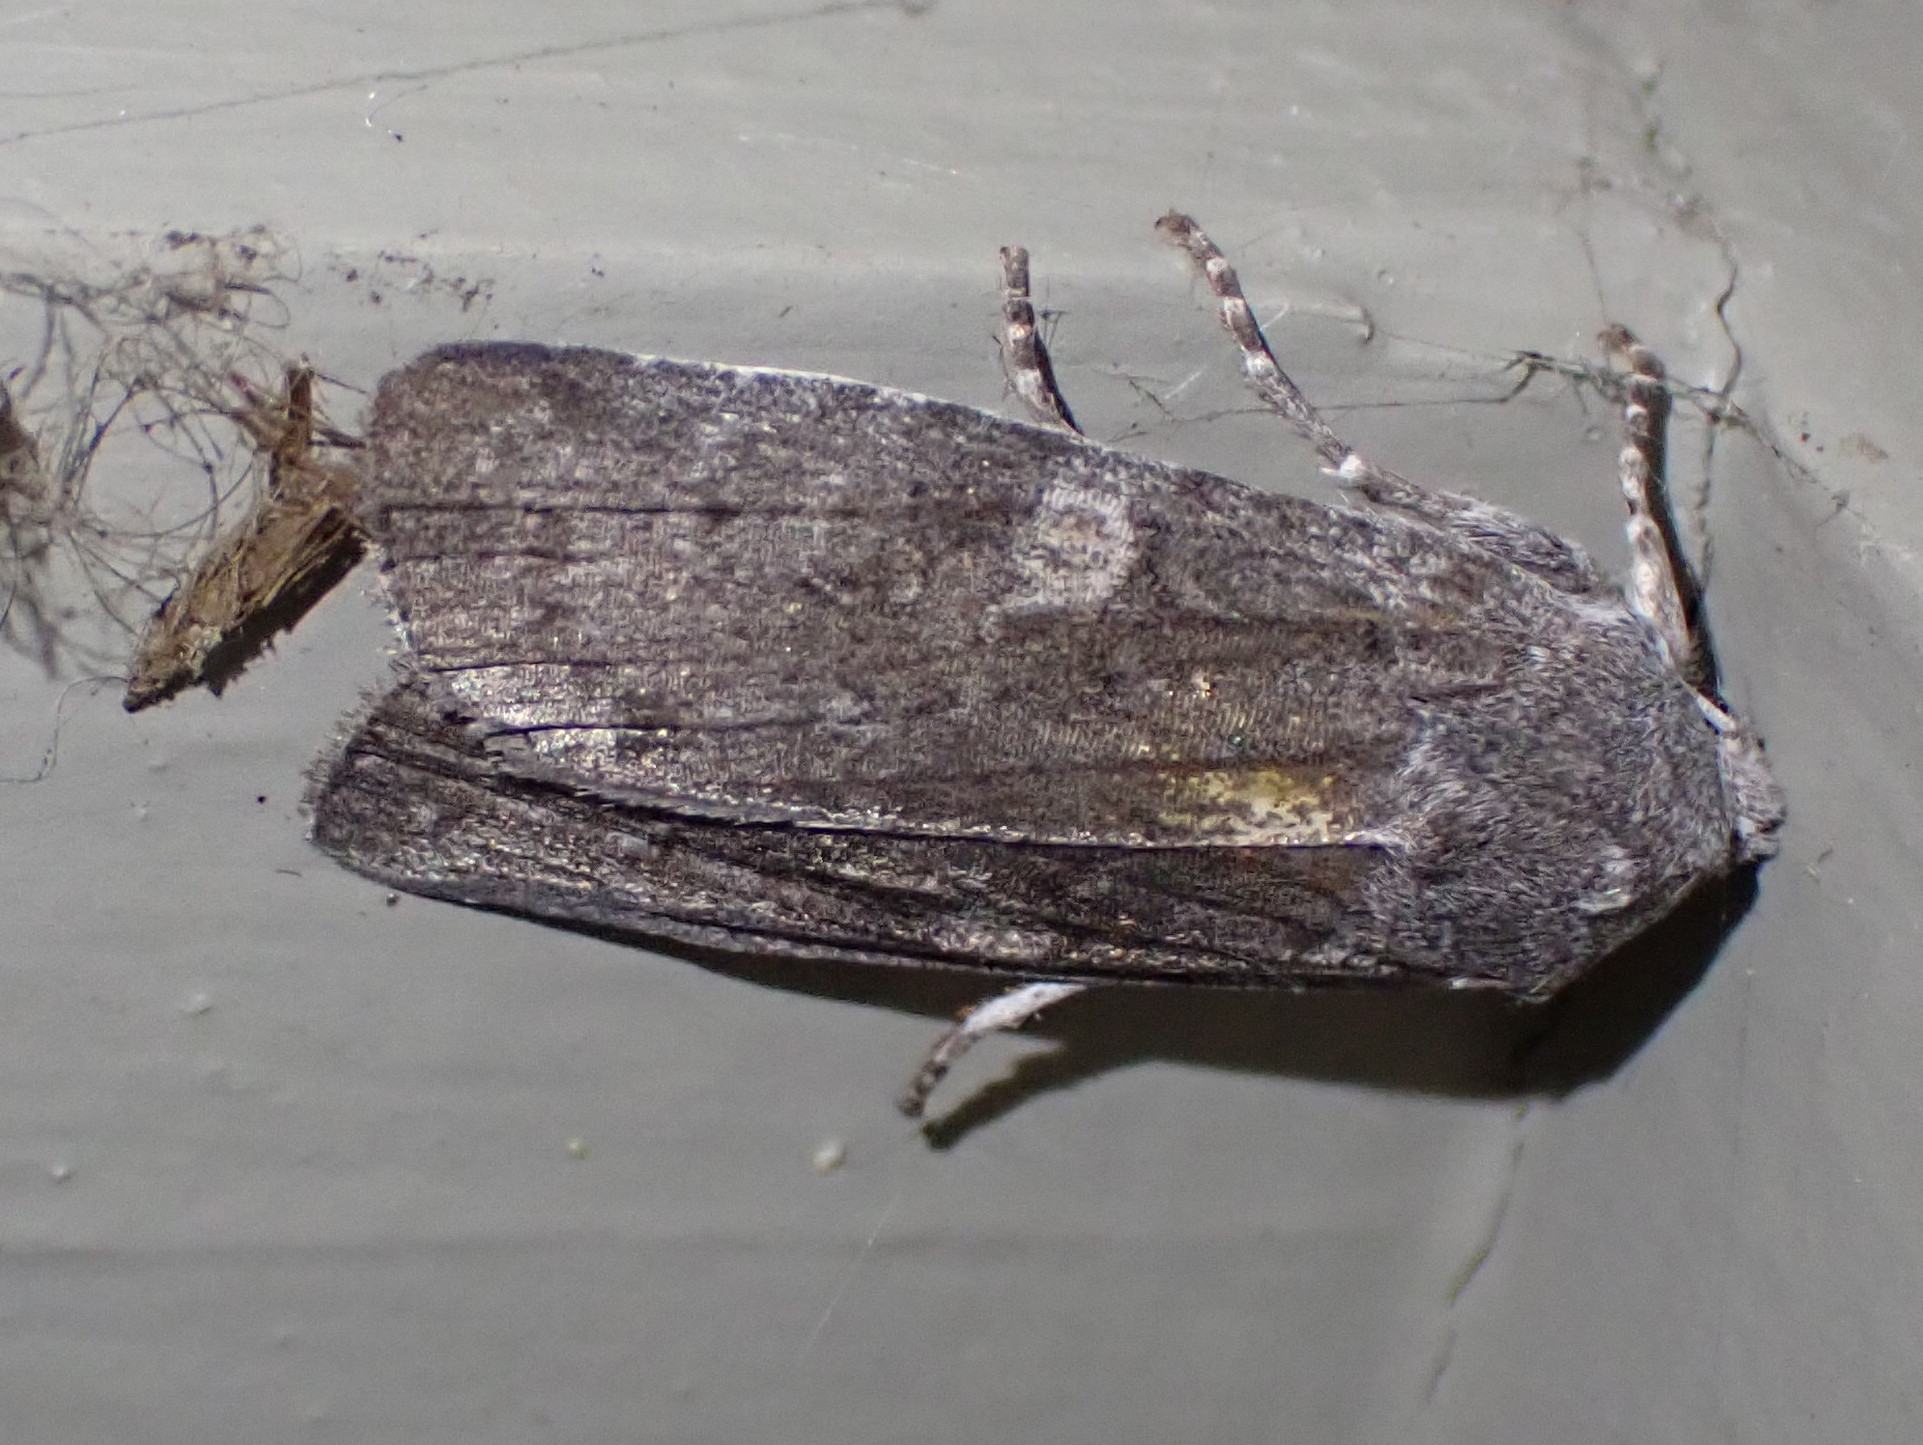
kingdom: Animalia
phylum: Arthropoda
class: Insecta
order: Lepidoptera
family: Noctuidae
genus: Lithophane
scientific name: Lithophane unimoda
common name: Dowdy pinion
